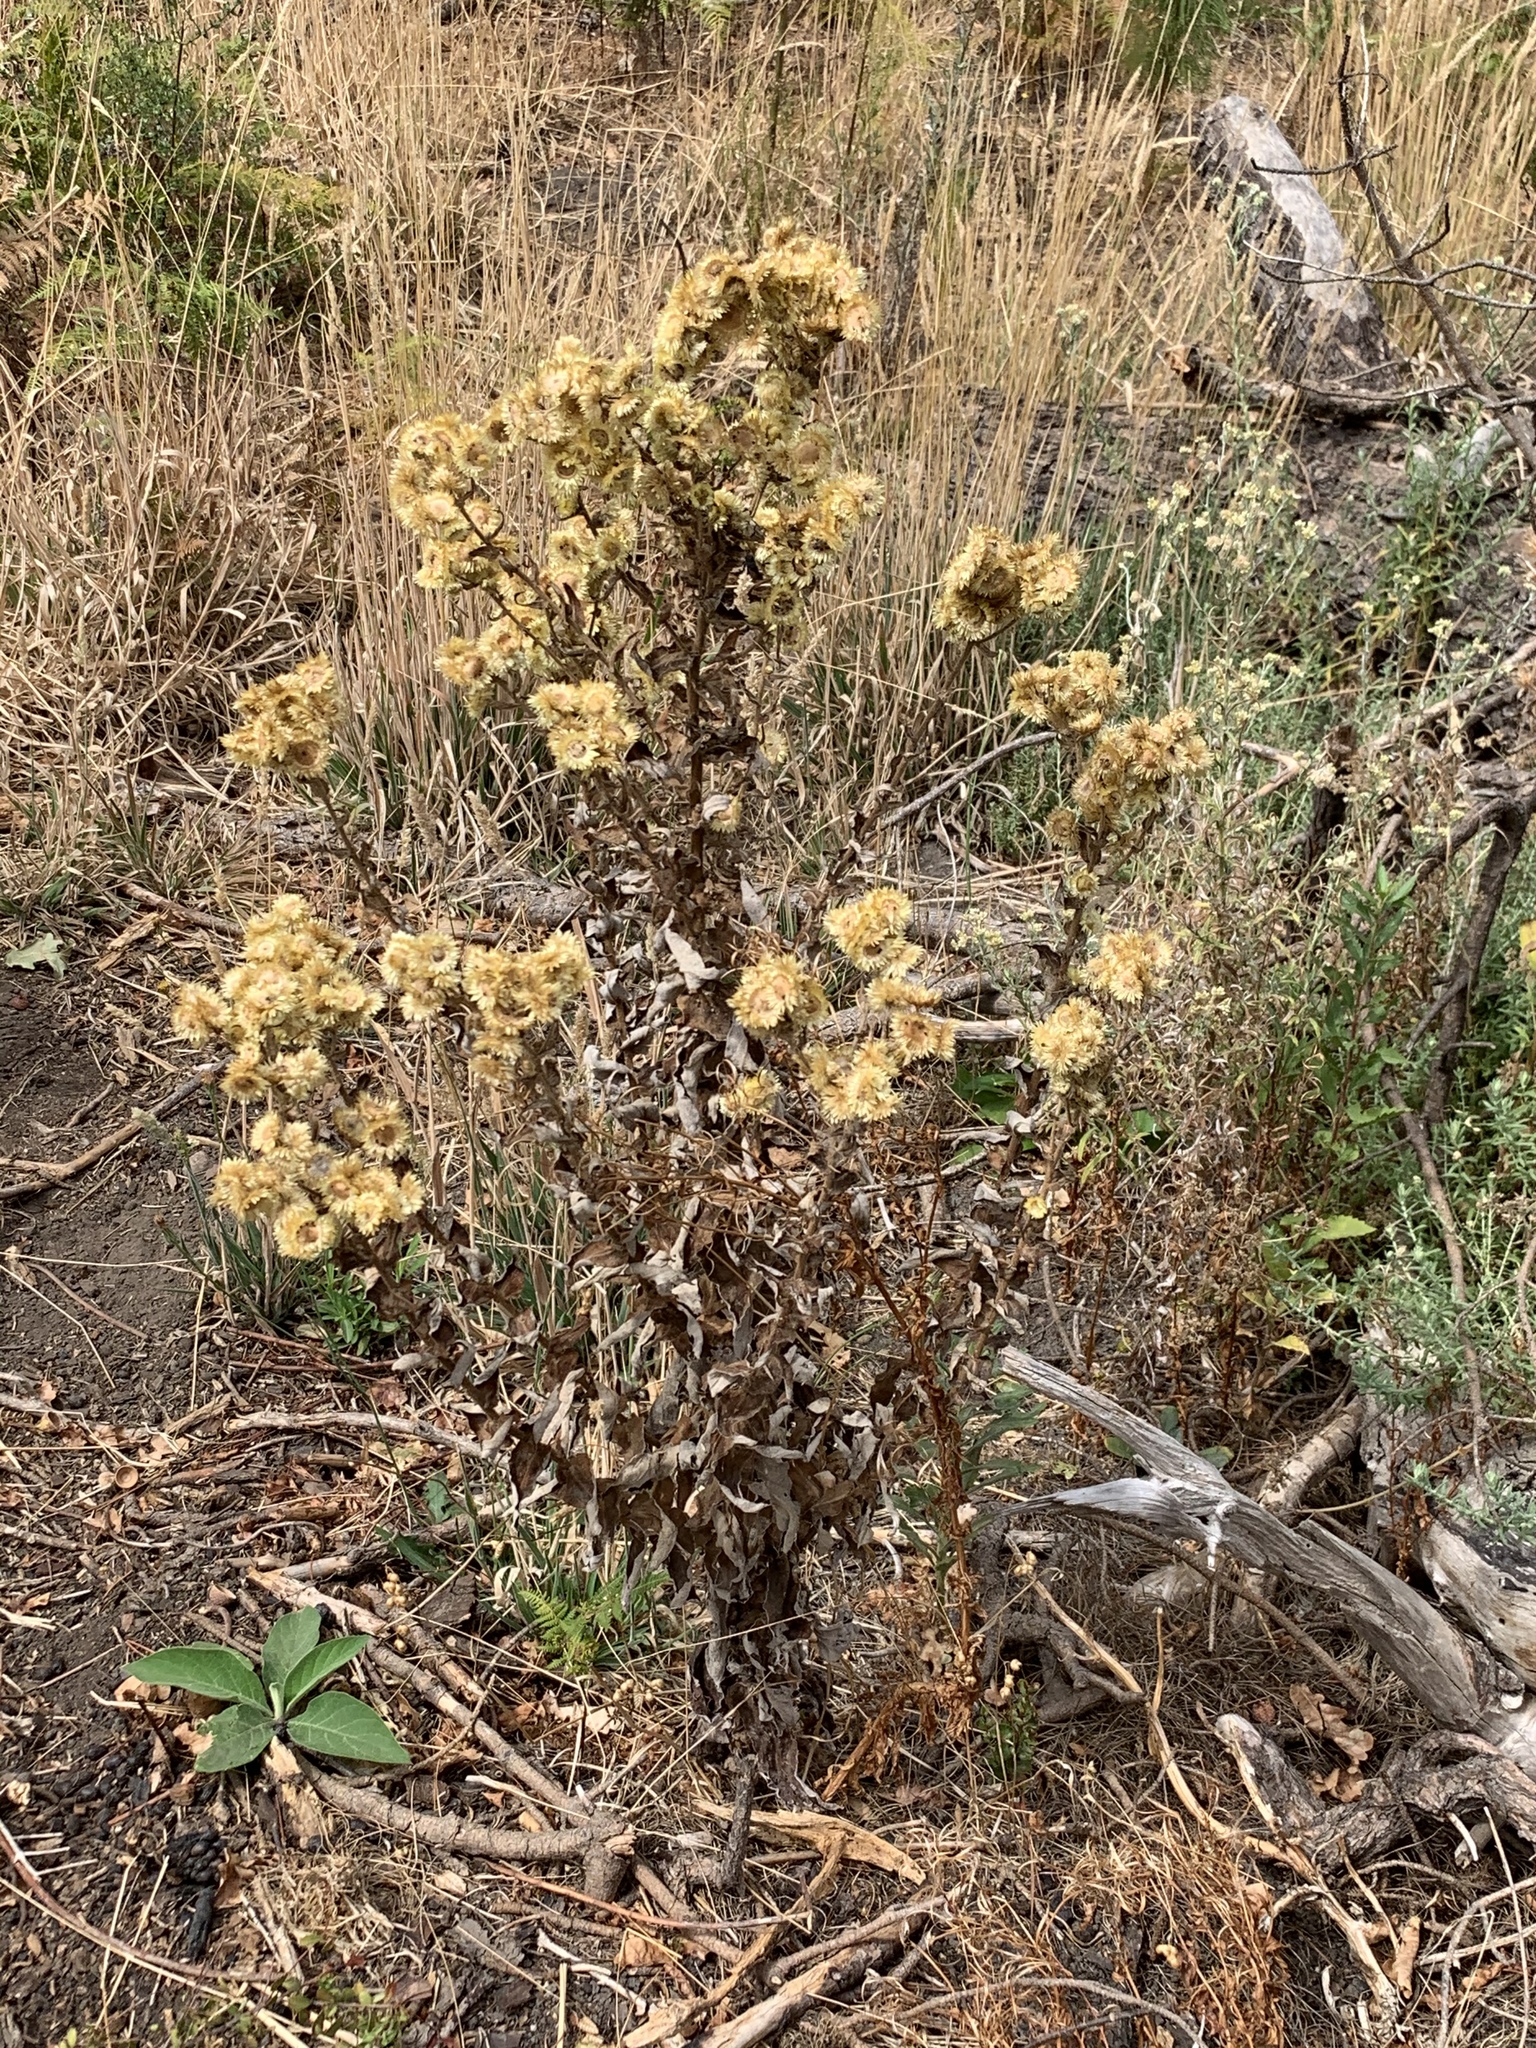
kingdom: Plantae
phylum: Tracheophyta
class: Magnoliopsida
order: Asterales
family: Asteraceae
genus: Helichrysum
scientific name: Helichrysum foetidum
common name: Stinking everlasting
